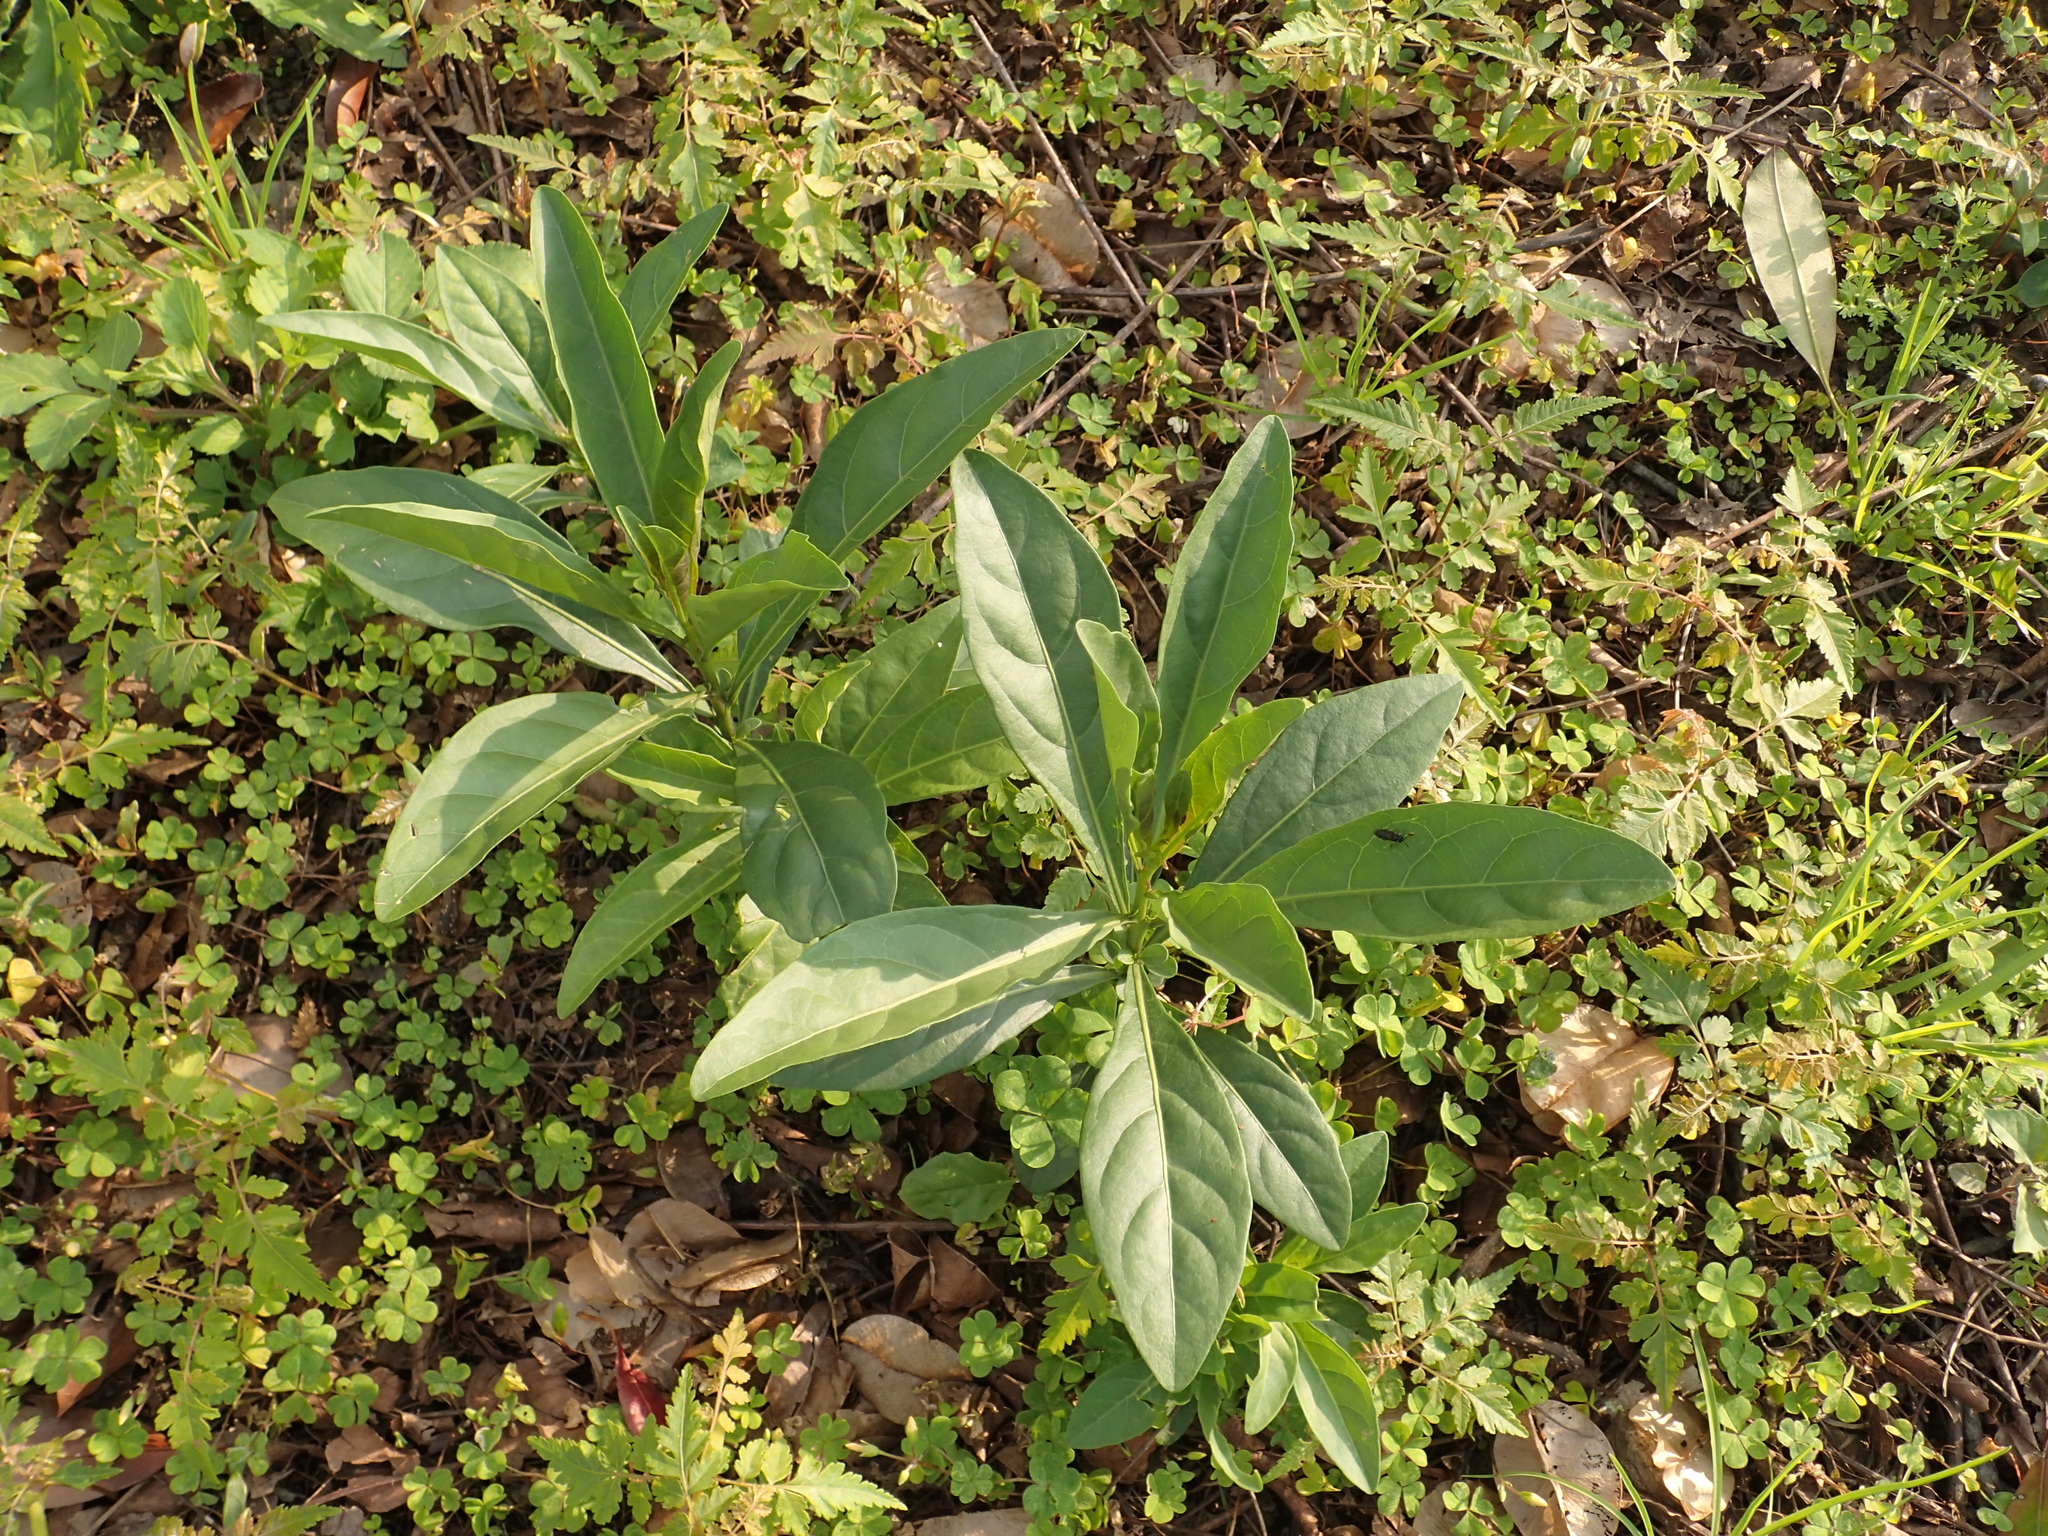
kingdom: Plantae
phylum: Tracheophyta
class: Magnoliopsida
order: Solanales
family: Solanaceae
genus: Solanum
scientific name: Solanum diphyllum
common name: Twoleaf nightshade
